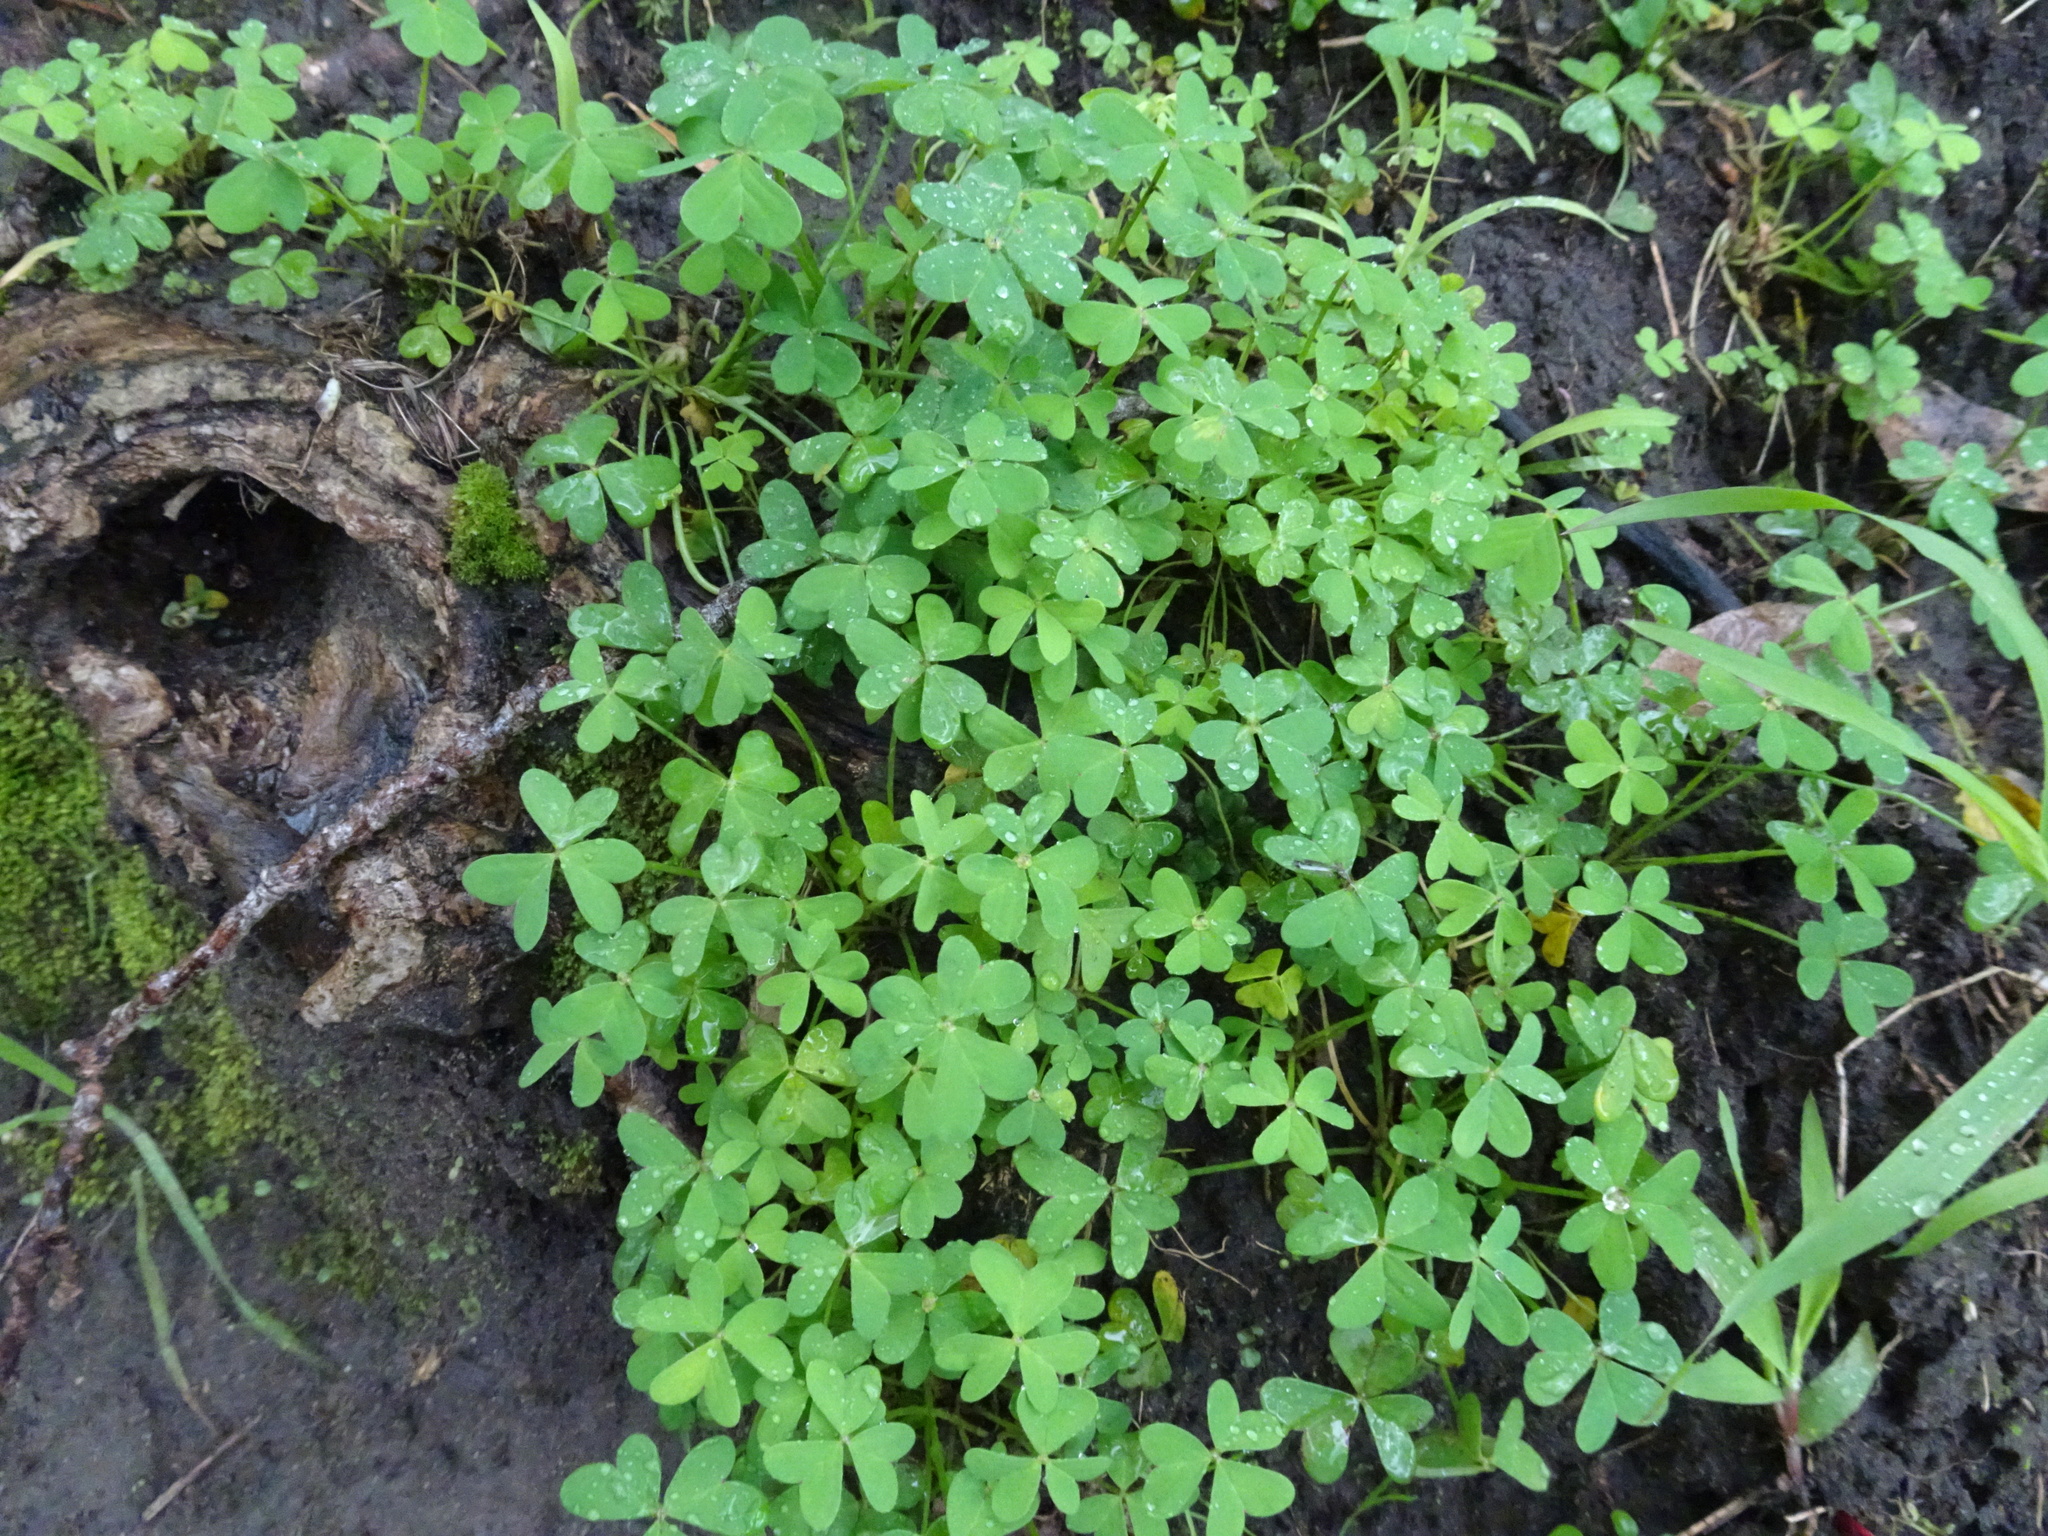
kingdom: Plantae
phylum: Tracheophyta
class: Magnoliopsida
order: Oxalidales
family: Oxalidaceae
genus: Oxalis
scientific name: Oxalis pes-caprae
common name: Bermuda-buttercup
